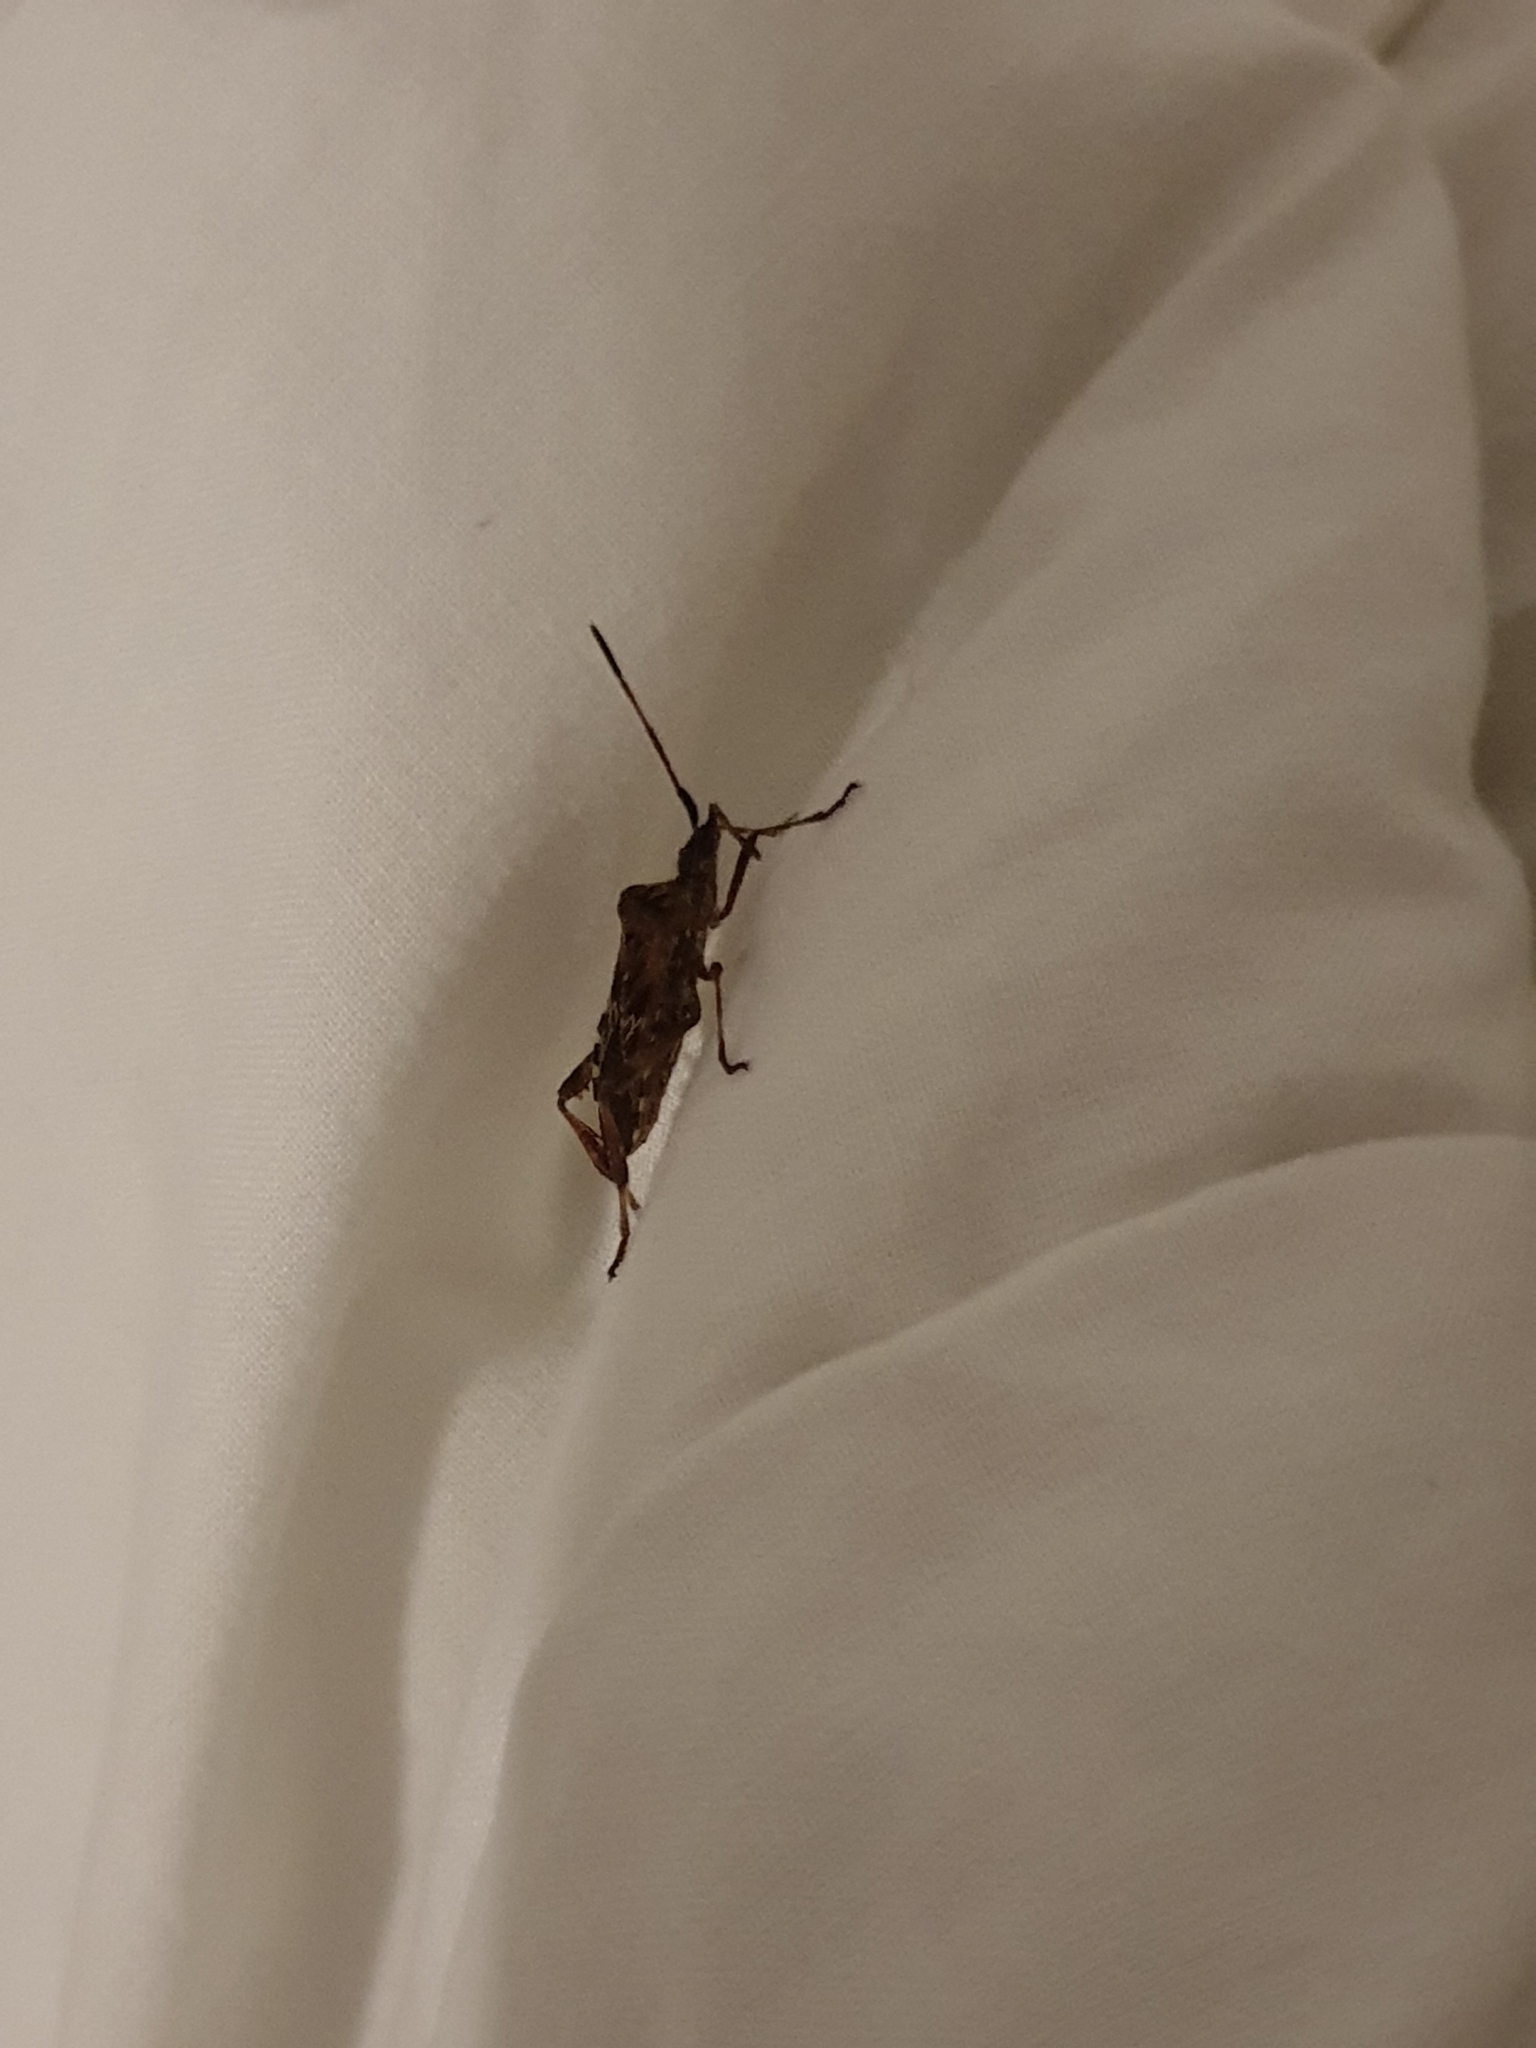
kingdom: Animalia
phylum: Arthropoda
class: Insecta
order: Hemiptera
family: Coreidae
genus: Leptoglossus
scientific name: Leptoglossus occidentalis
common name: Western conifer-seed bug
